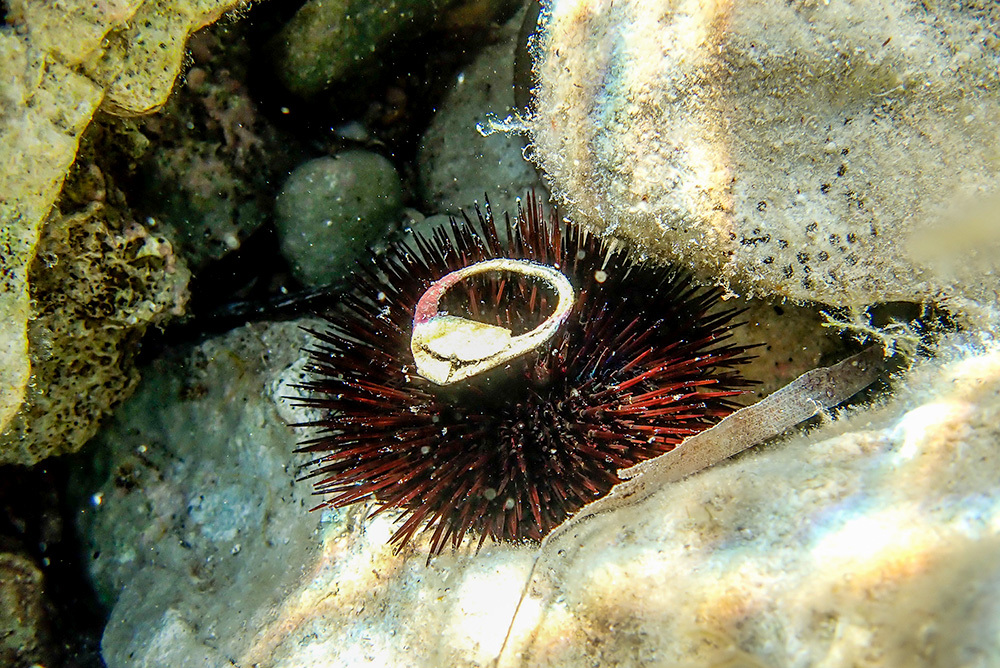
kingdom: Animalia
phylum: Echinodermata
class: Echinoidea
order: Camarodonta
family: Parechinidae
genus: Paracentrotus
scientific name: Paracentrotus lividus
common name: Purple sea urchin
